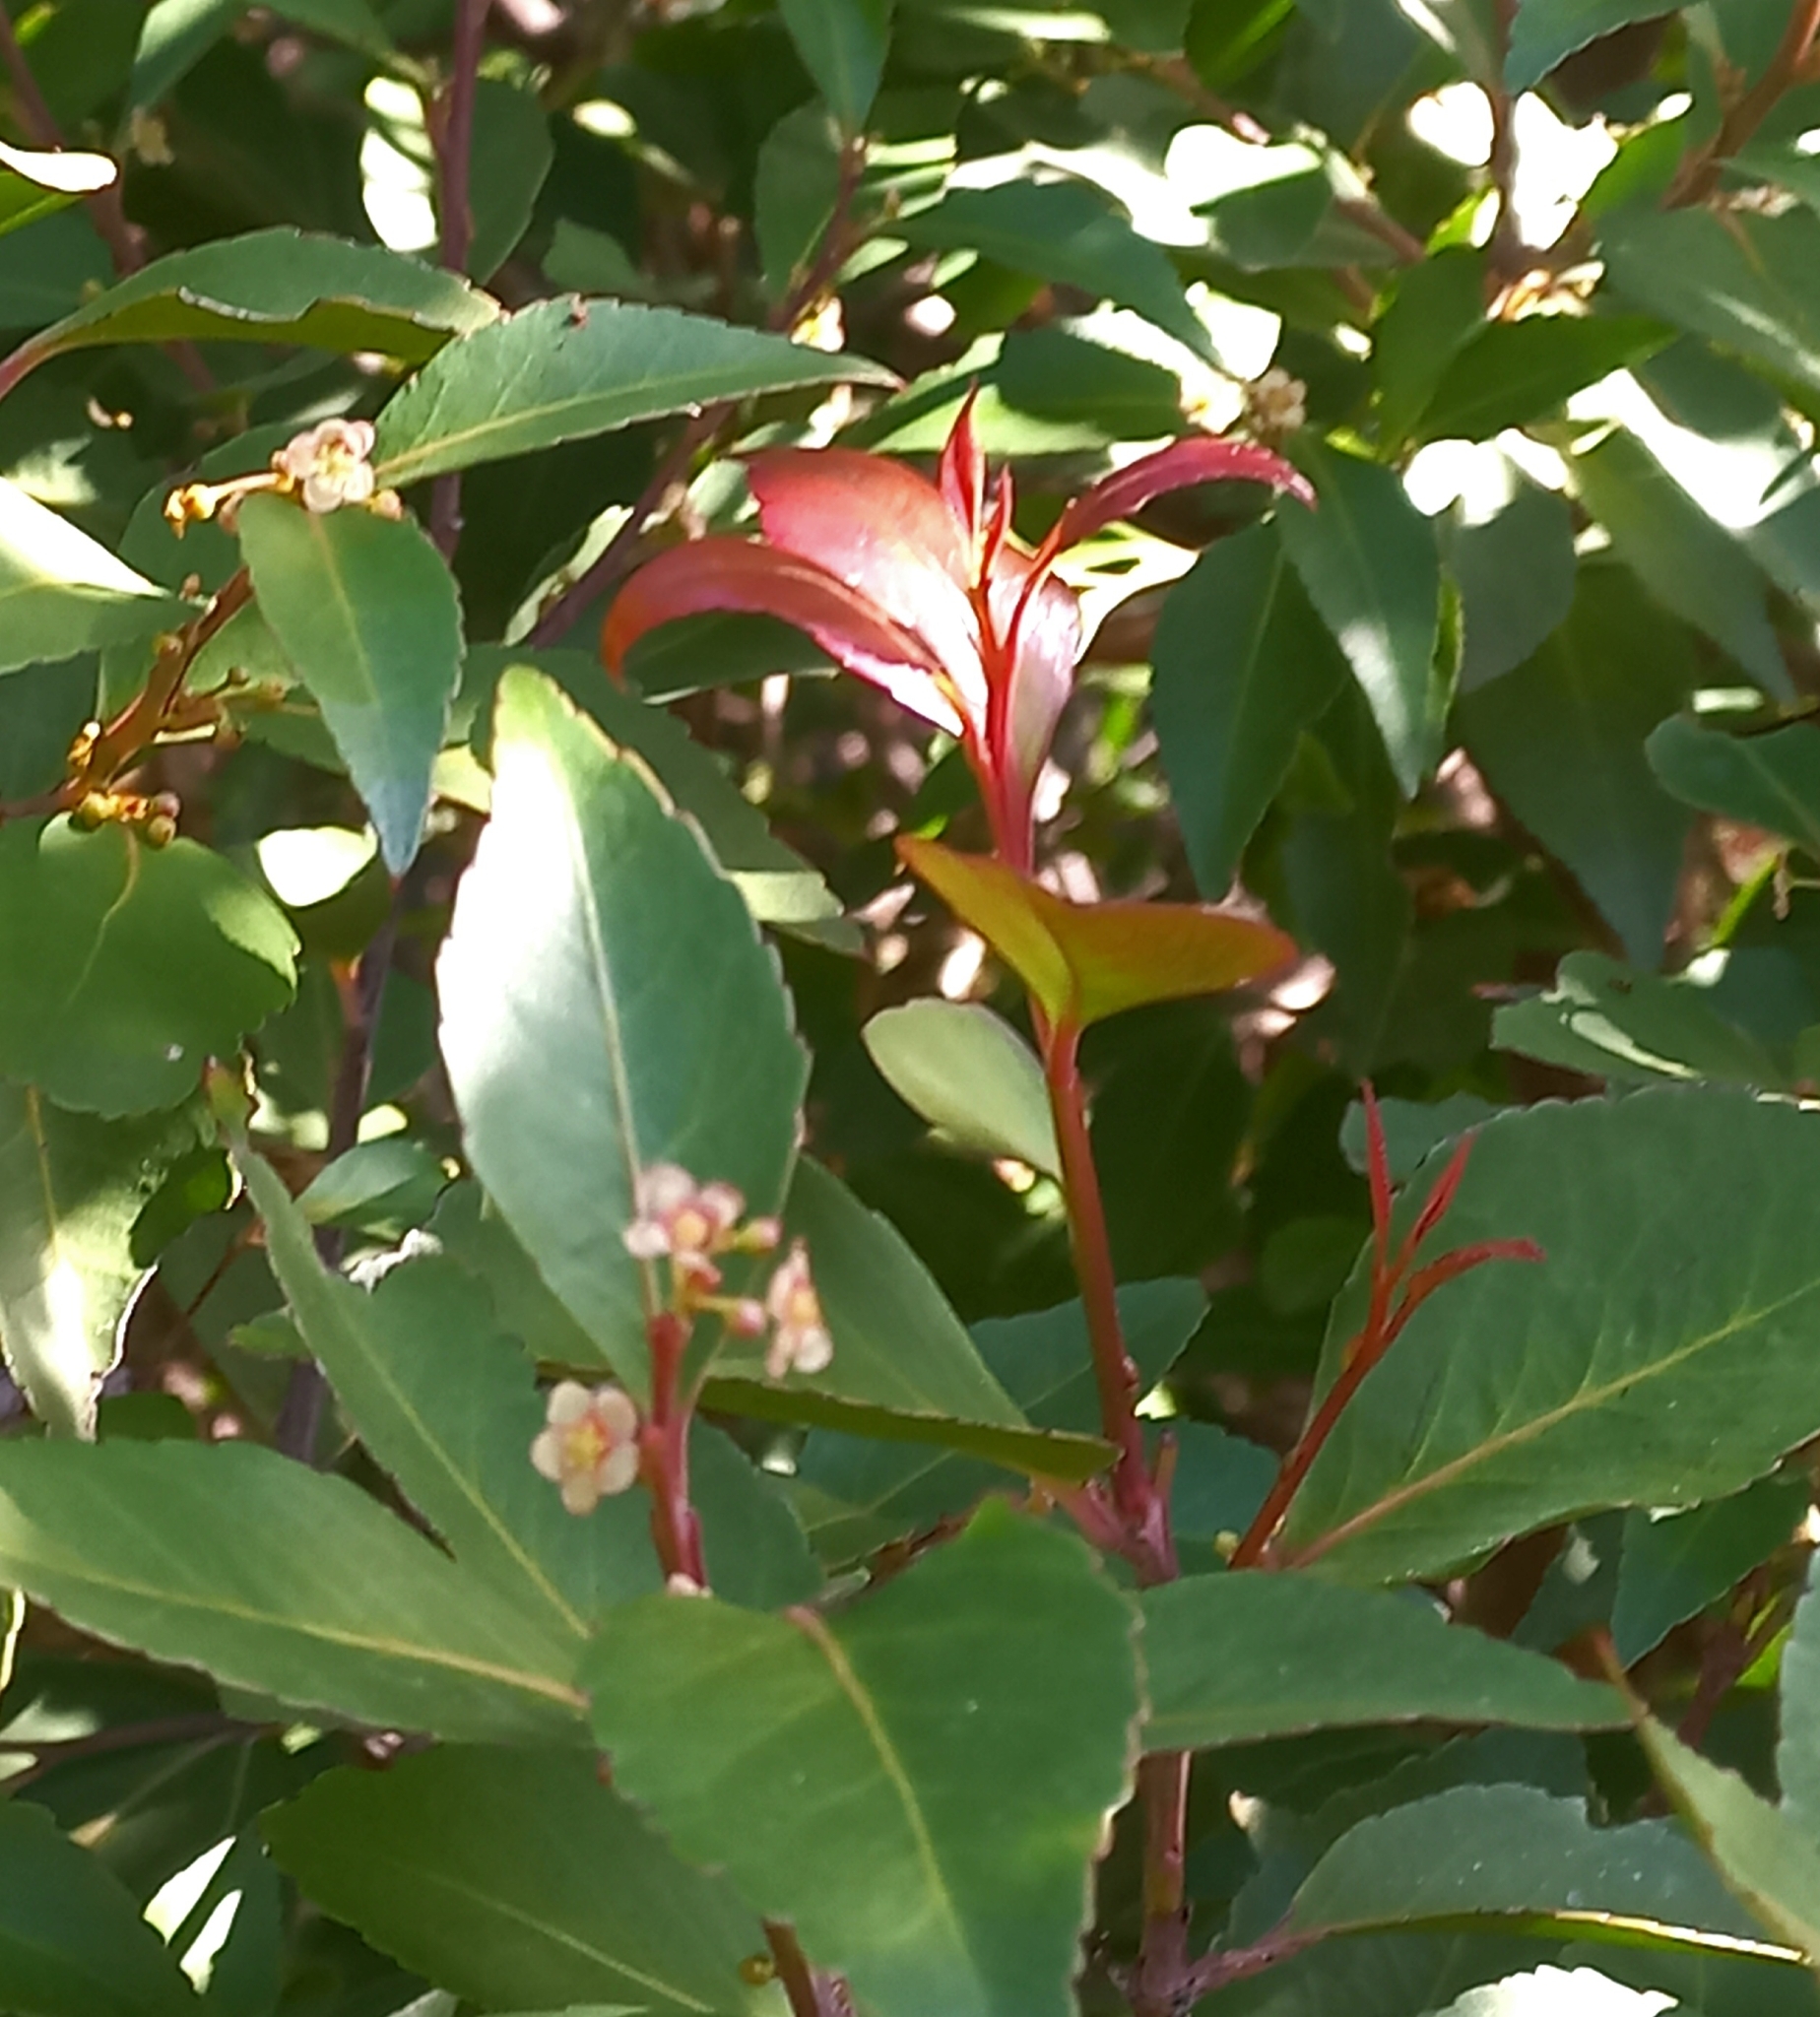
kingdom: Plantae
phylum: Tracheophyta
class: Magnoliopsida
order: Celastrales
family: Celastraceae
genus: Gymnosporia
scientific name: Gymnosporia acuminata
